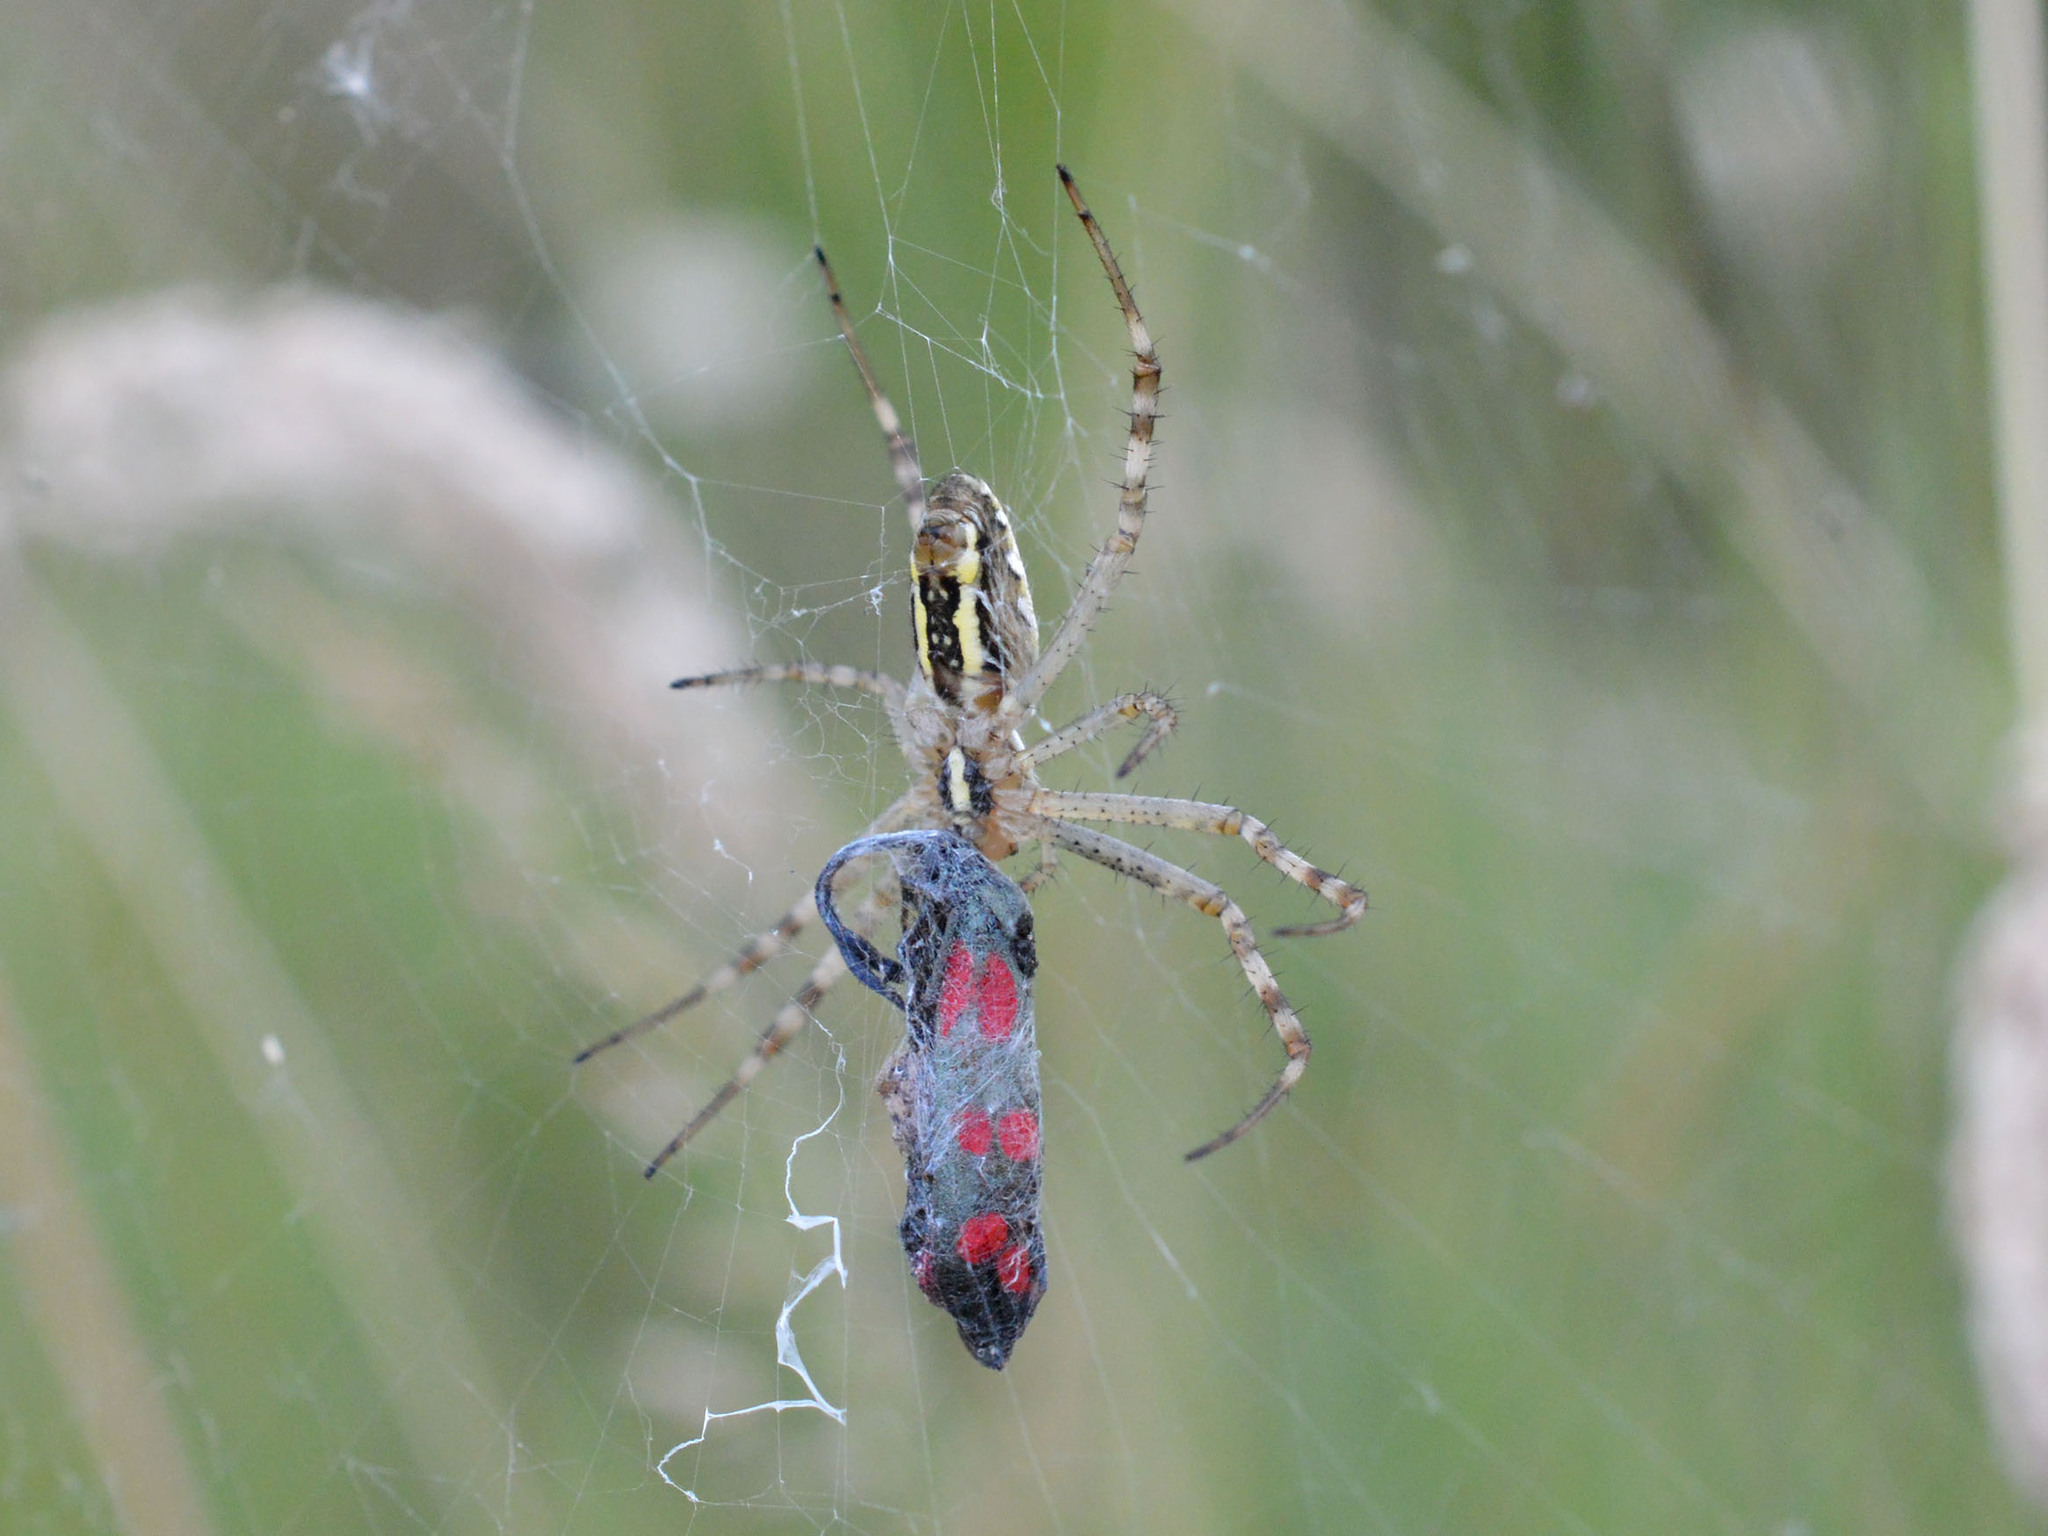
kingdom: Animalia
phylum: Arthropoda
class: Insecta
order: Lepidoptera
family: Zygaenidae
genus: Zygaena
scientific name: Zygaena filipendulae
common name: Six-spot burnet
